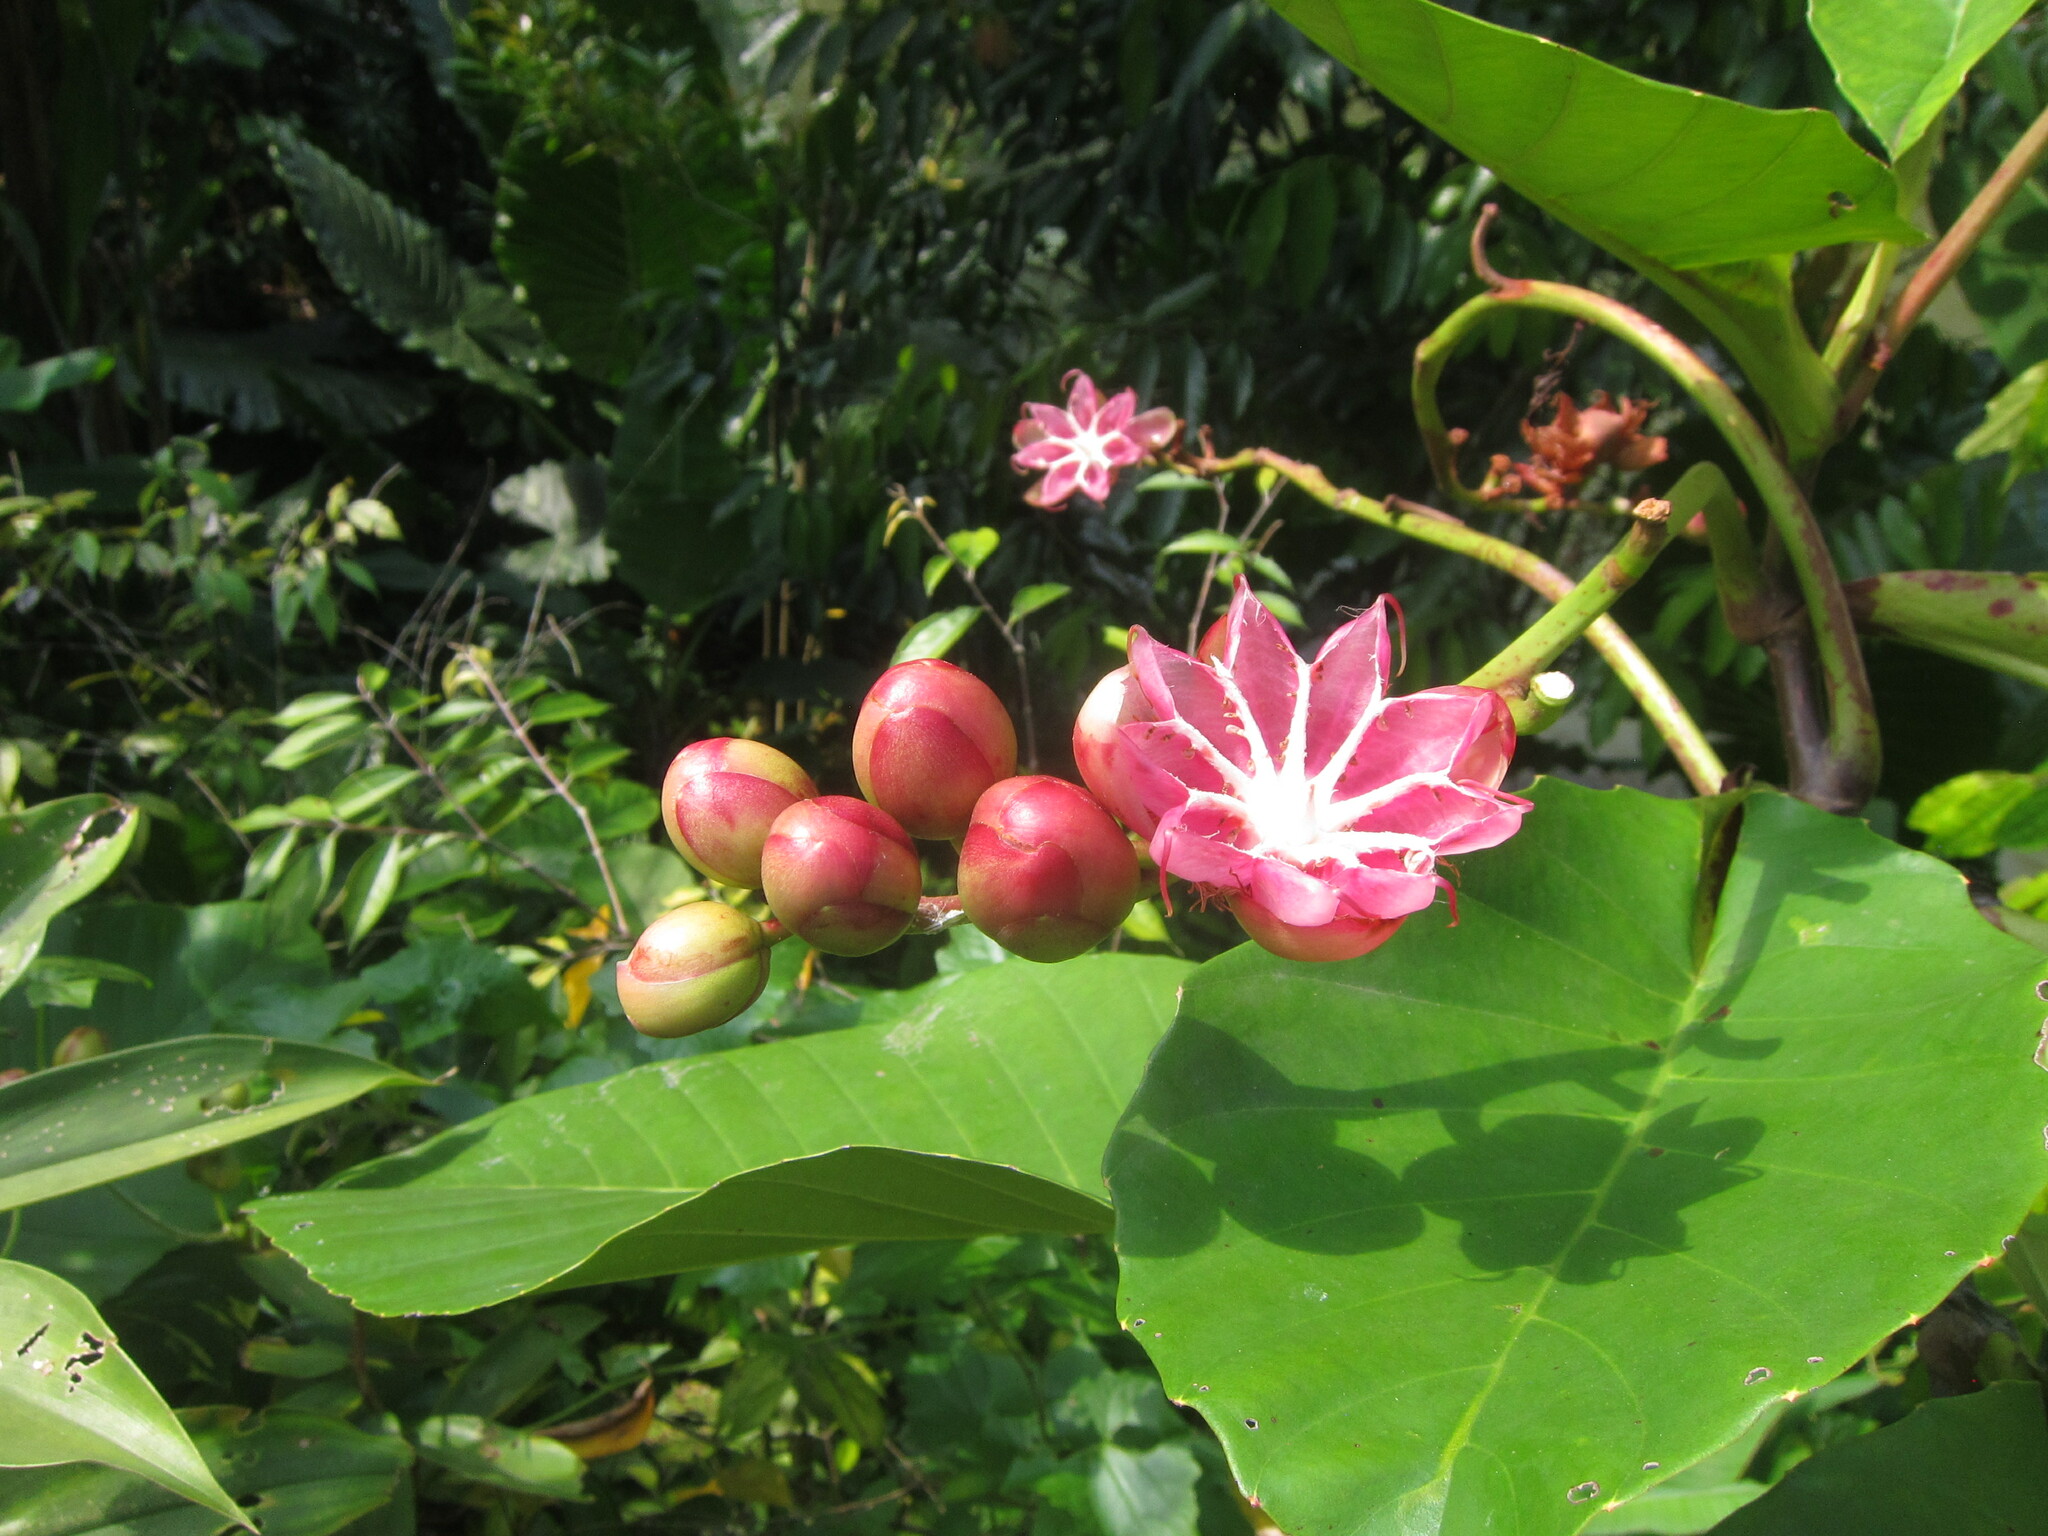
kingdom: Plantae
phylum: Tracheophyta
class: Magnoliopsida
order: Dilleniales
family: Dilleniaceae
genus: Dillenia
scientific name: Dillenia suffruticosa
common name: Shrubby dillenia
